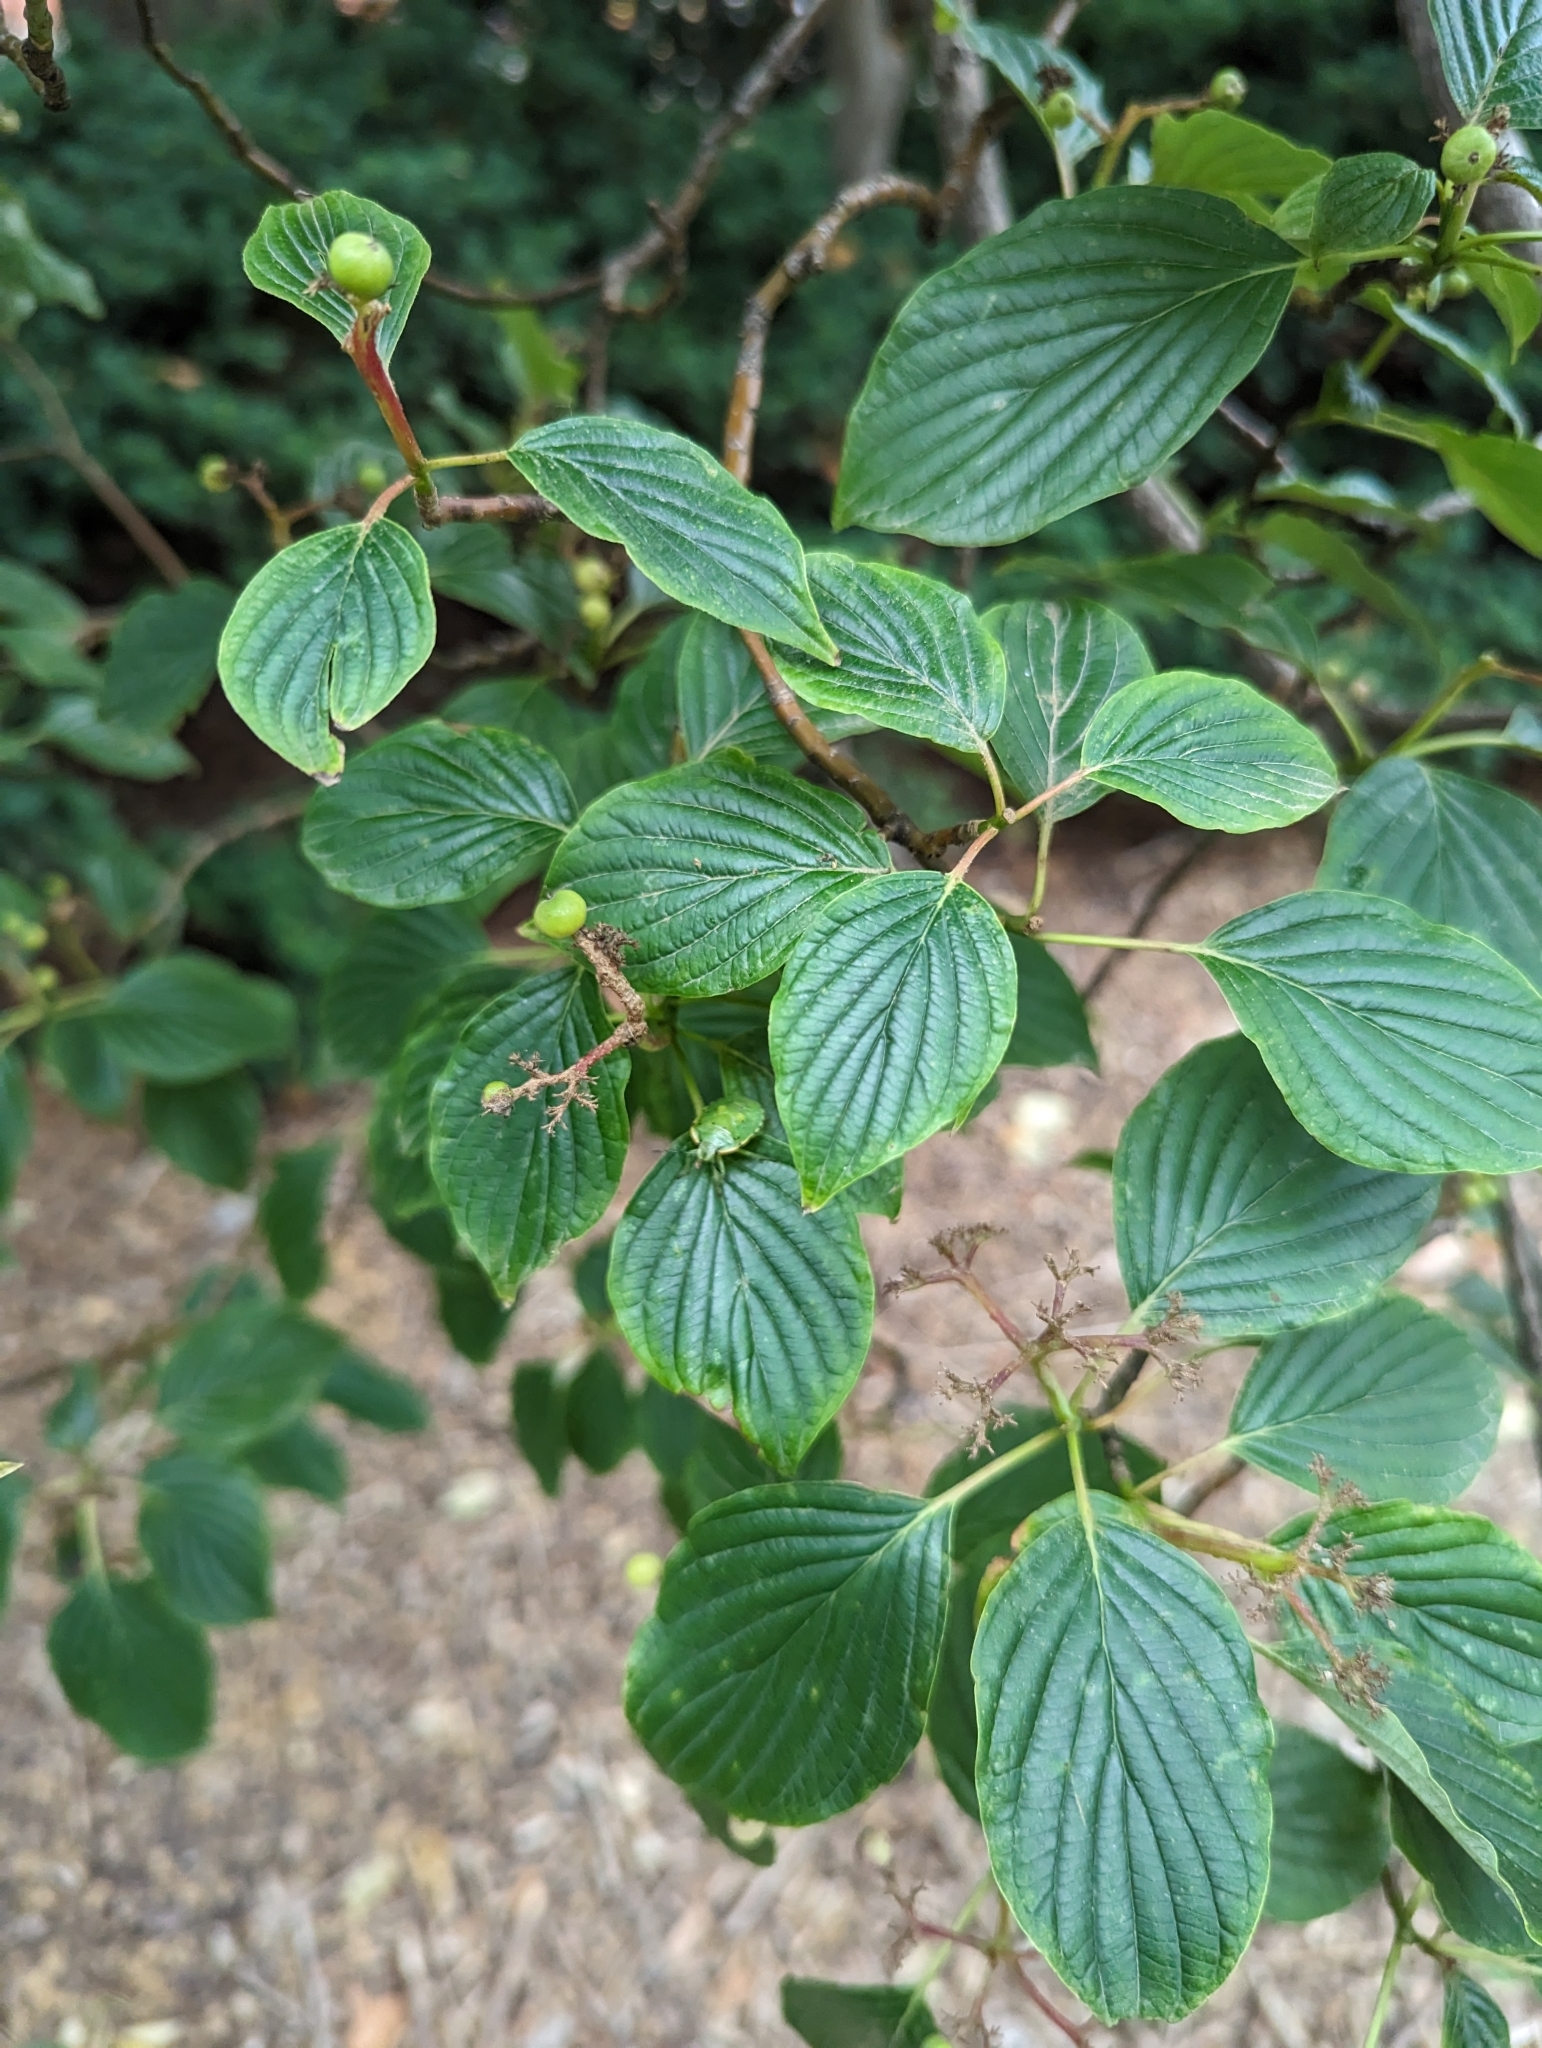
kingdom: Animalia
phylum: Arthropoda
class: Insecta
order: Hemiptera
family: Pentatomidae
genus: Chinavia
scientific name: Chinavia hilaris
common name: Green stink bug
